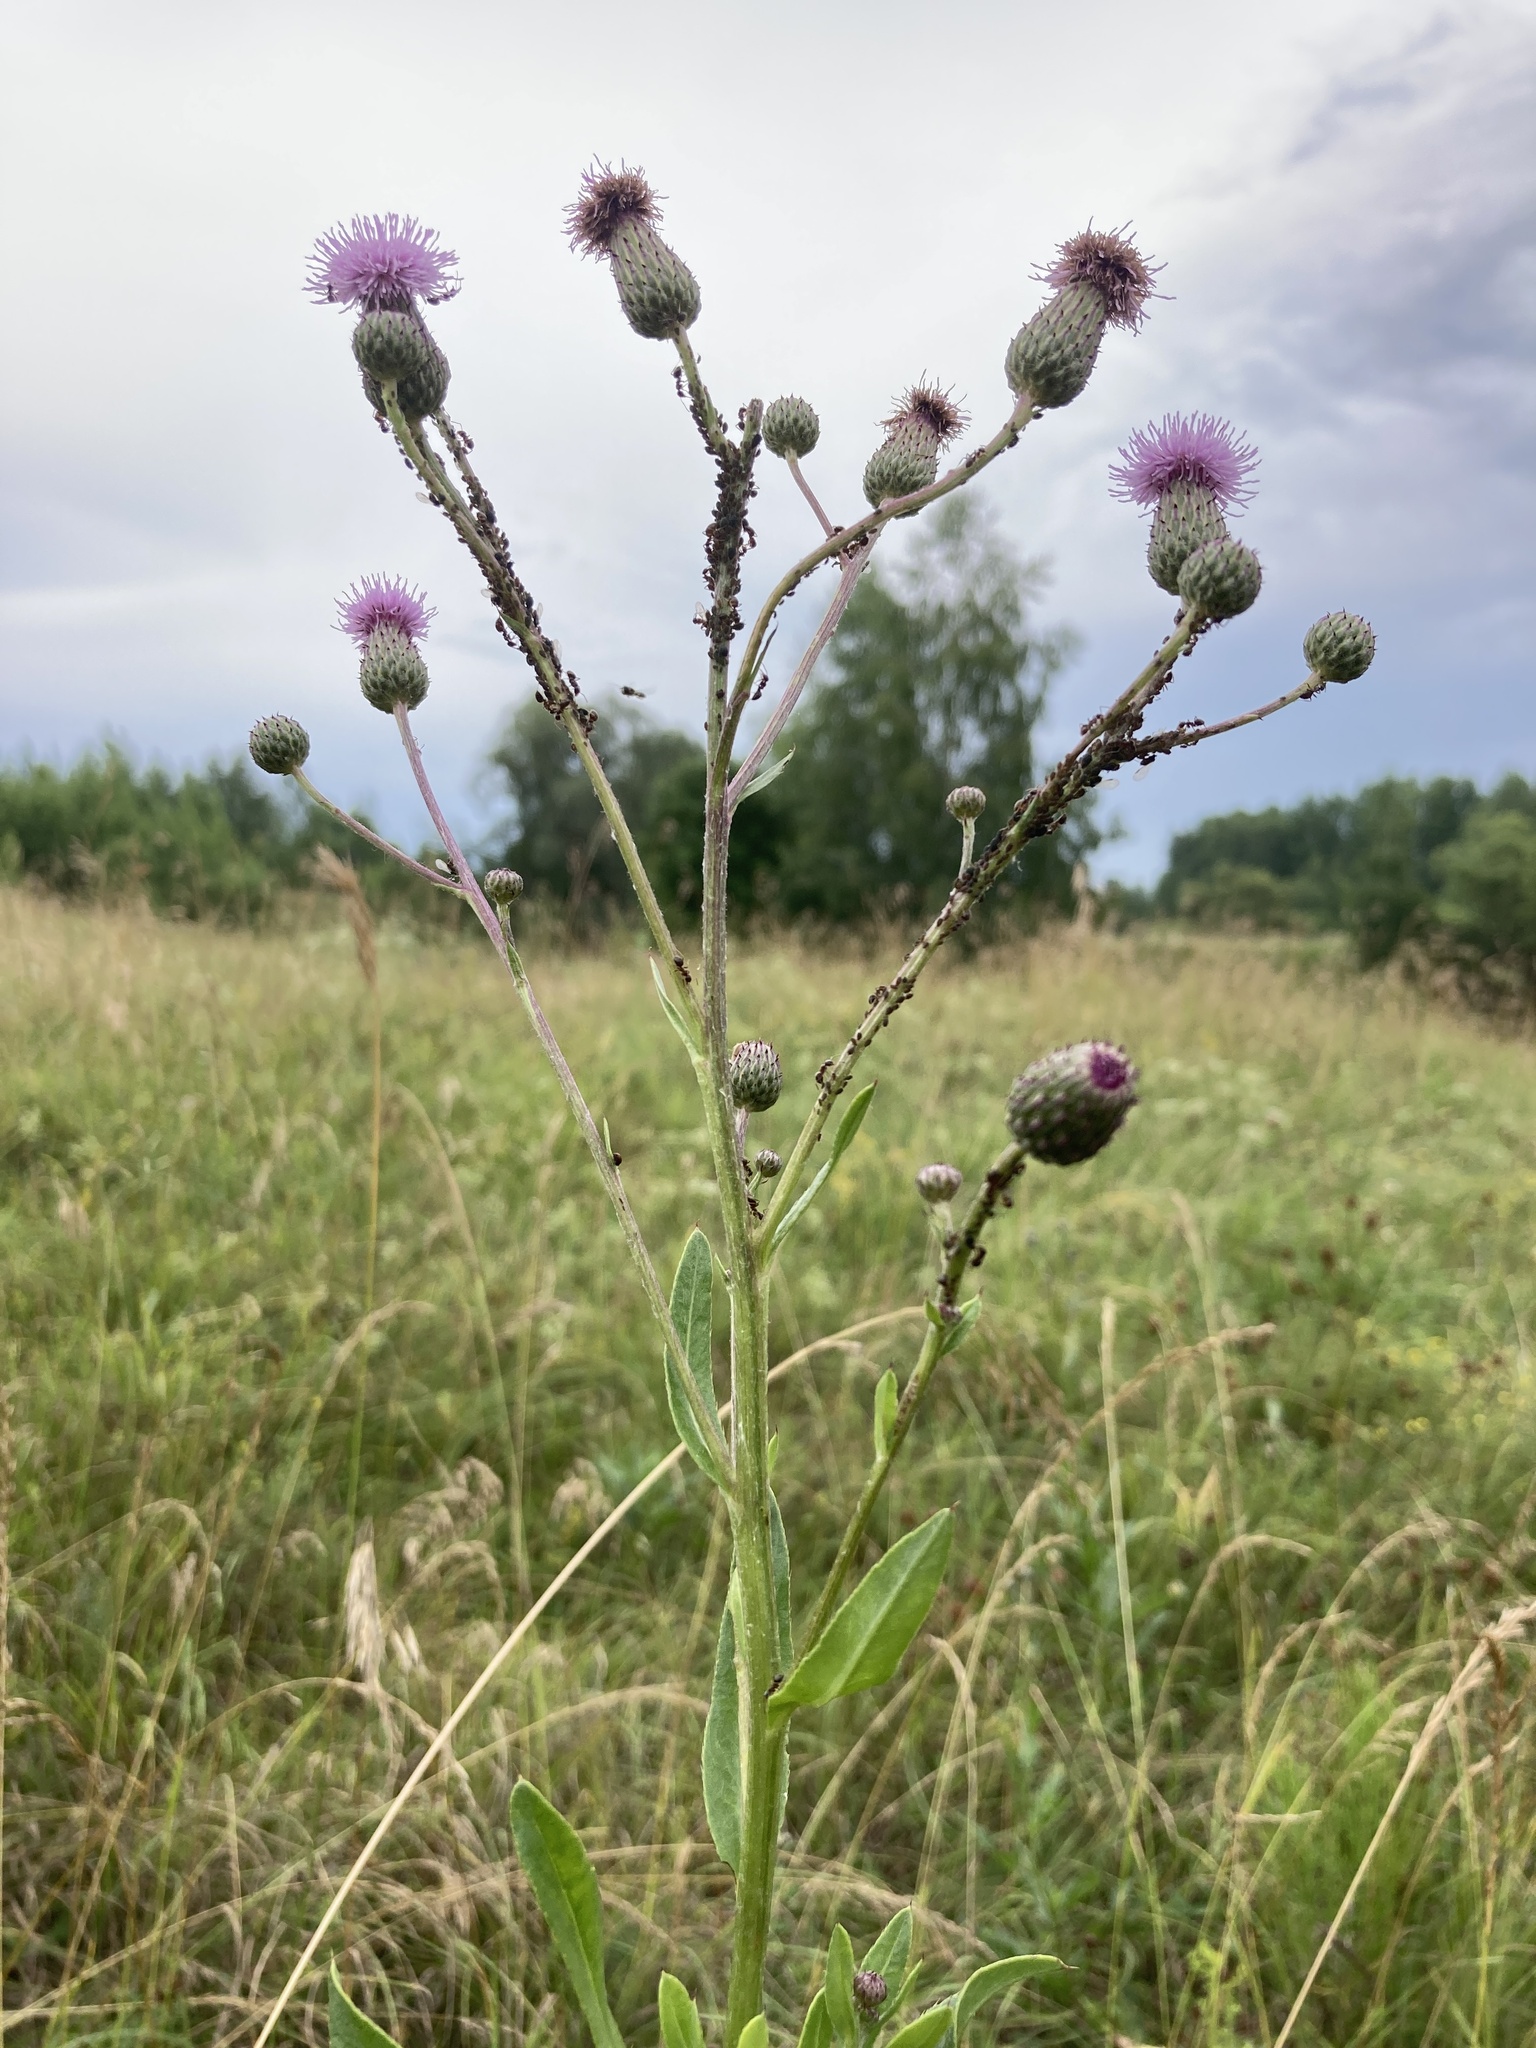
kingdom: Plantae
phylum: Tracheophyta
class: Magnoliopsida
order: Asterales
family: Asteraceae
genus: Cirsium
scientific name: Cirsium arvense
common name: Creeping thistle
